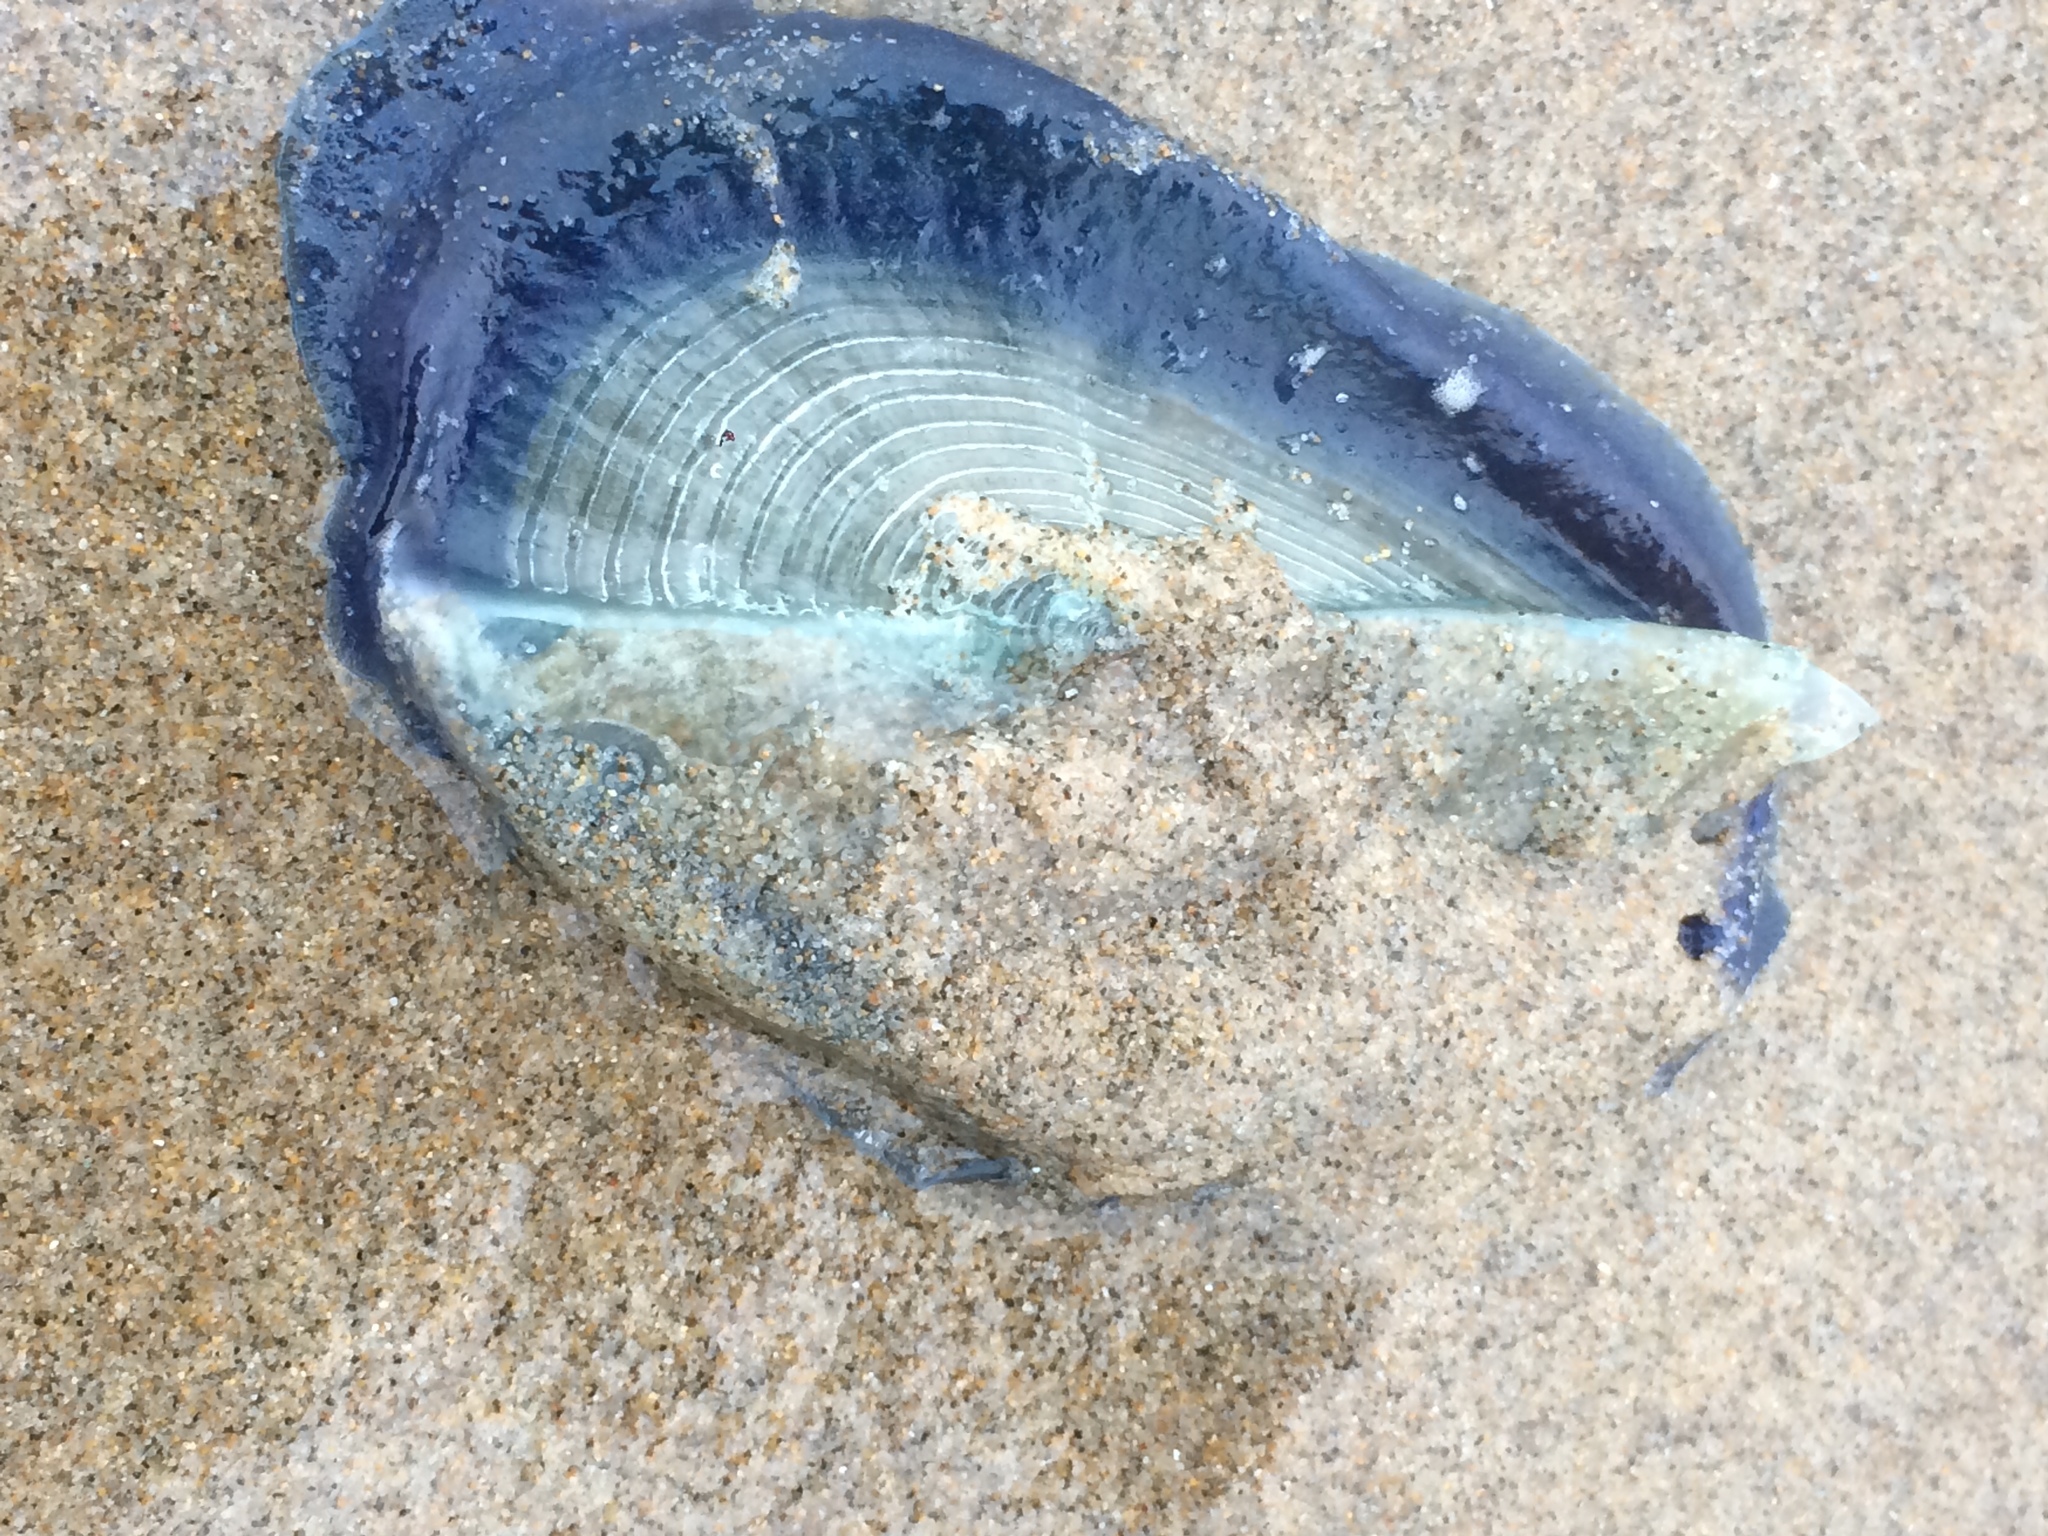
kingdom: Animalia
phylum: Cnidaria
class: Hydrozoa
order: Anthoathecata
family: Porpitidae
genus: Velella
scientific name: Velella velella
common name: By-the-wind-sailor
